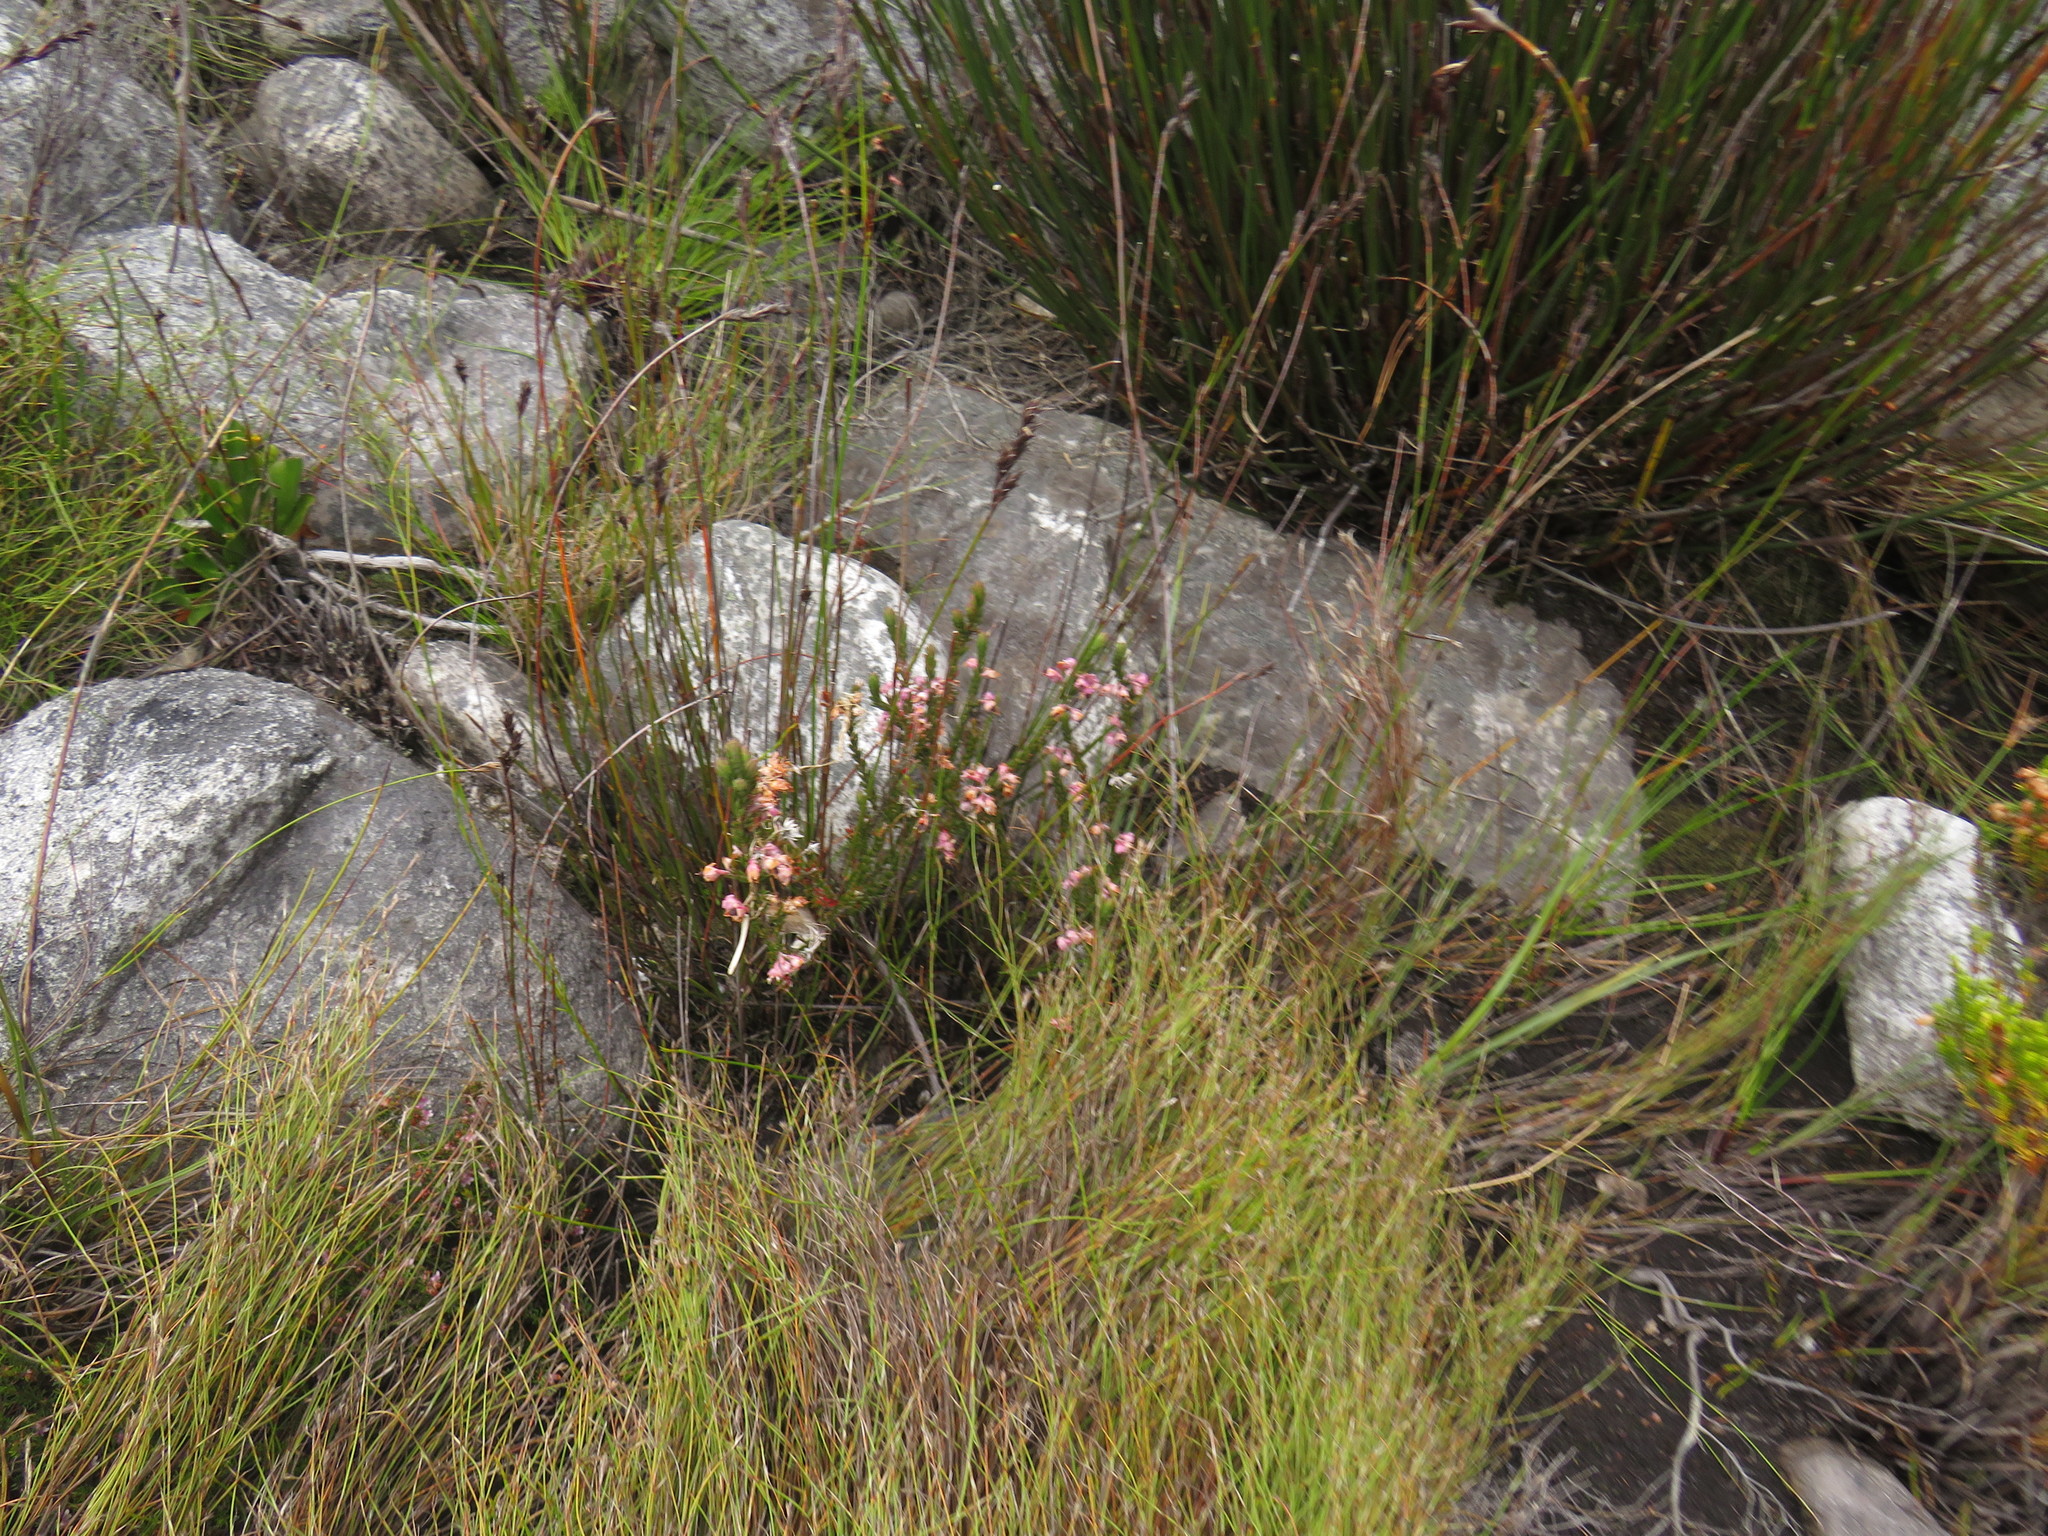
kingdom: Plantae
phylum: Tracheophyta
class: Magnoliopsida
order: Ericales
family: Ericaceae
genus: Erica
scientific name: Erica calycina
